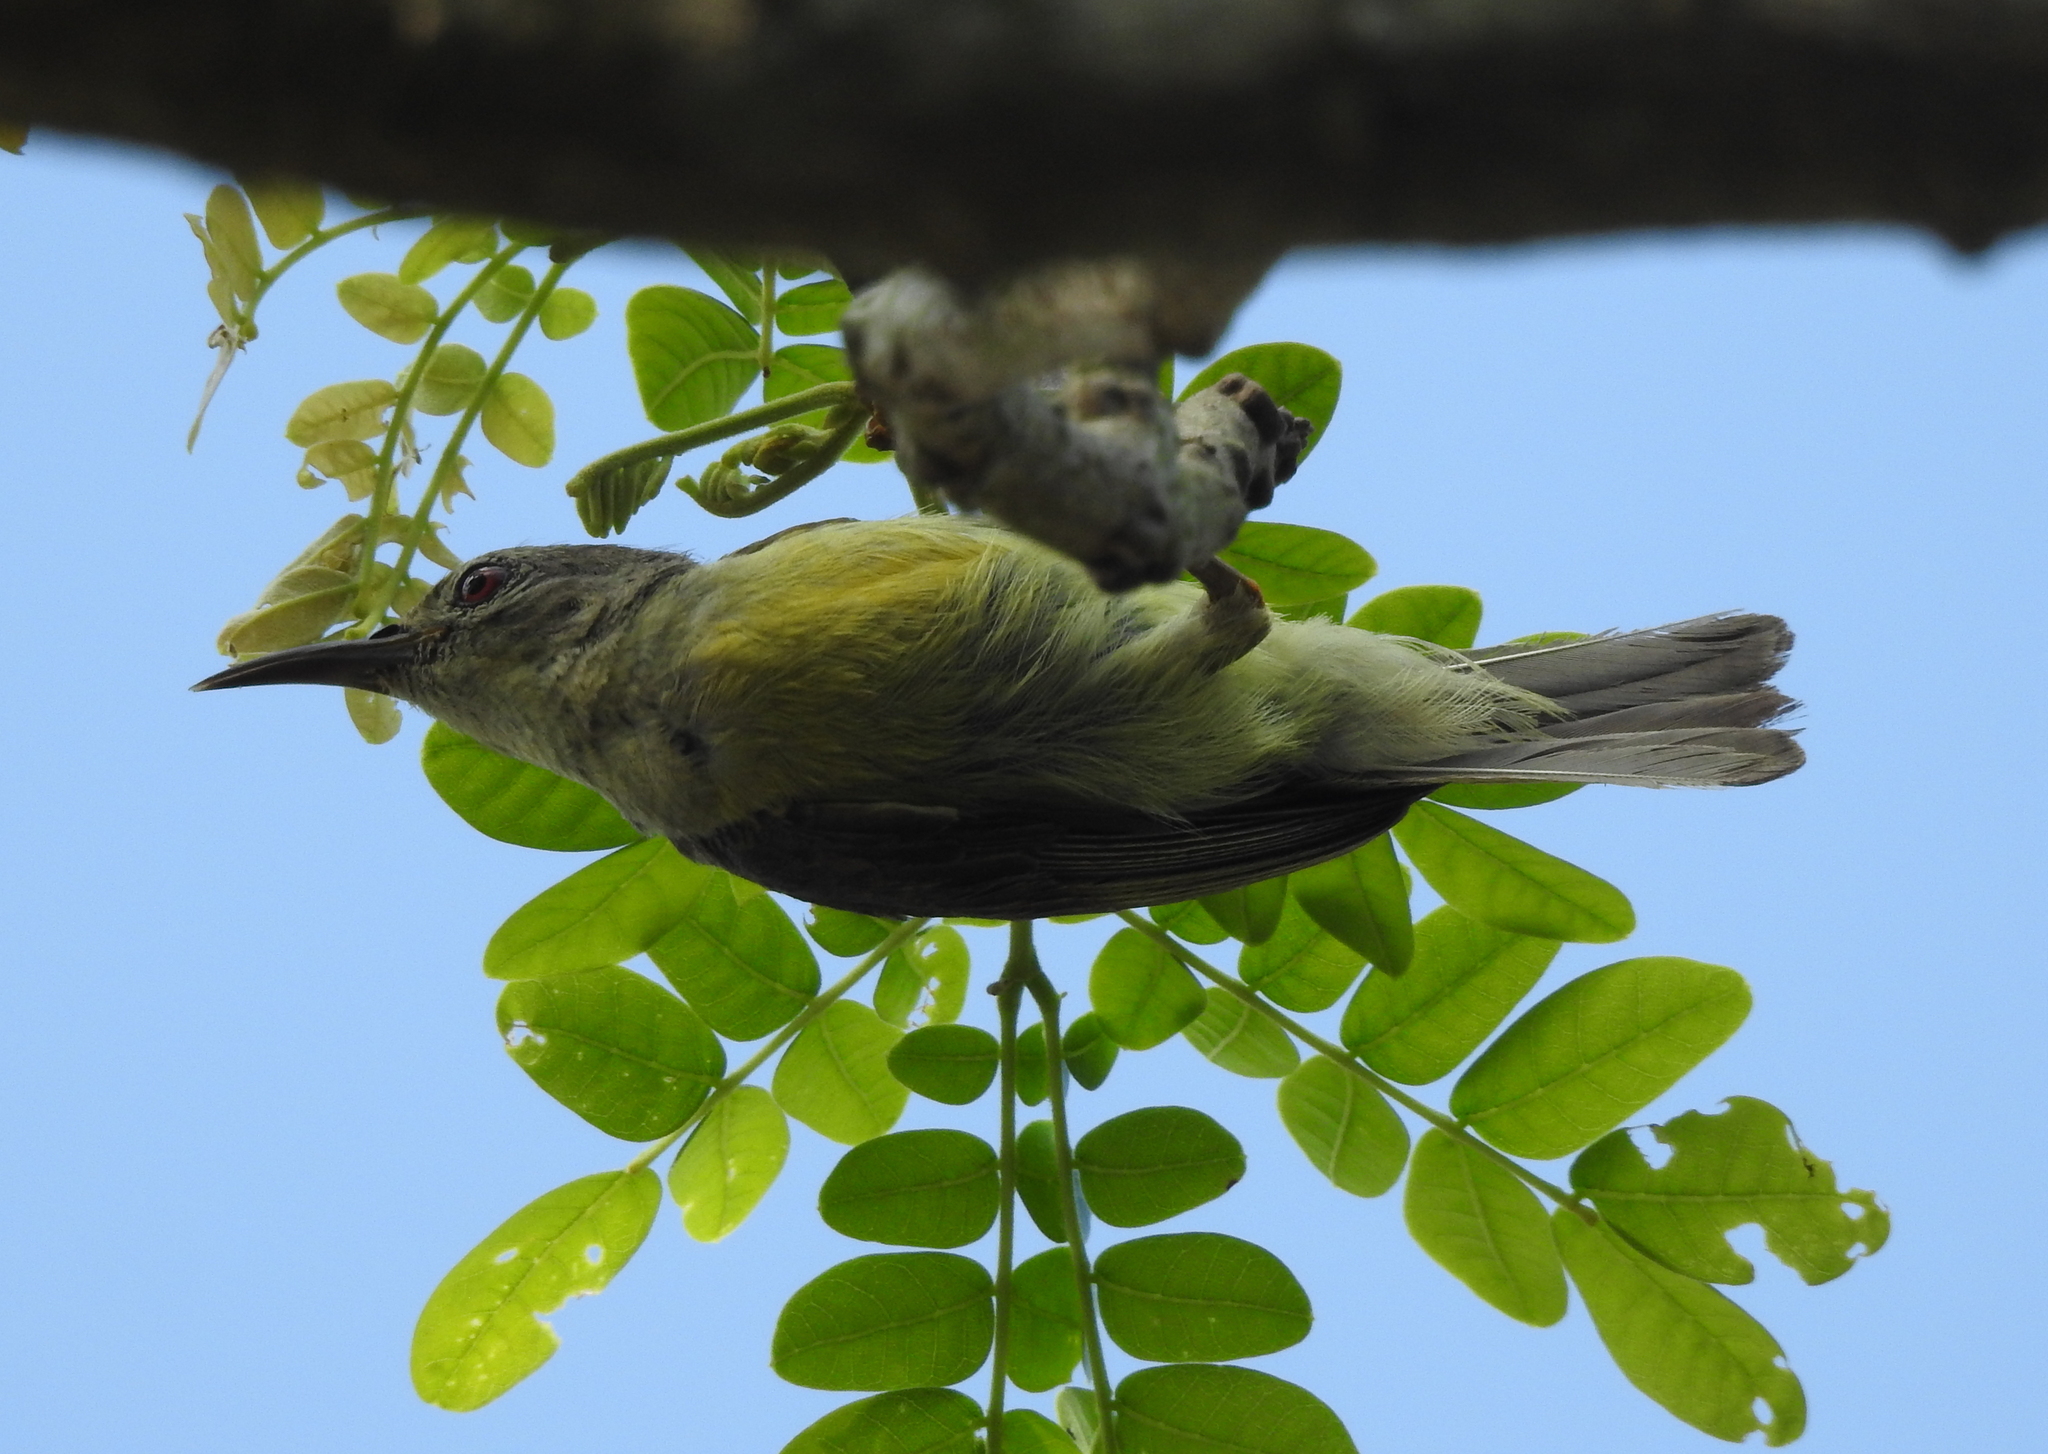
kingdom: Animalia
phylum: Chordata
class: Aves
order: Passeriformes
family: Nectariniidae
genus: Anthreptes
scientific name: Anthreptes malacensis
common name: Brown-throated sunbird
